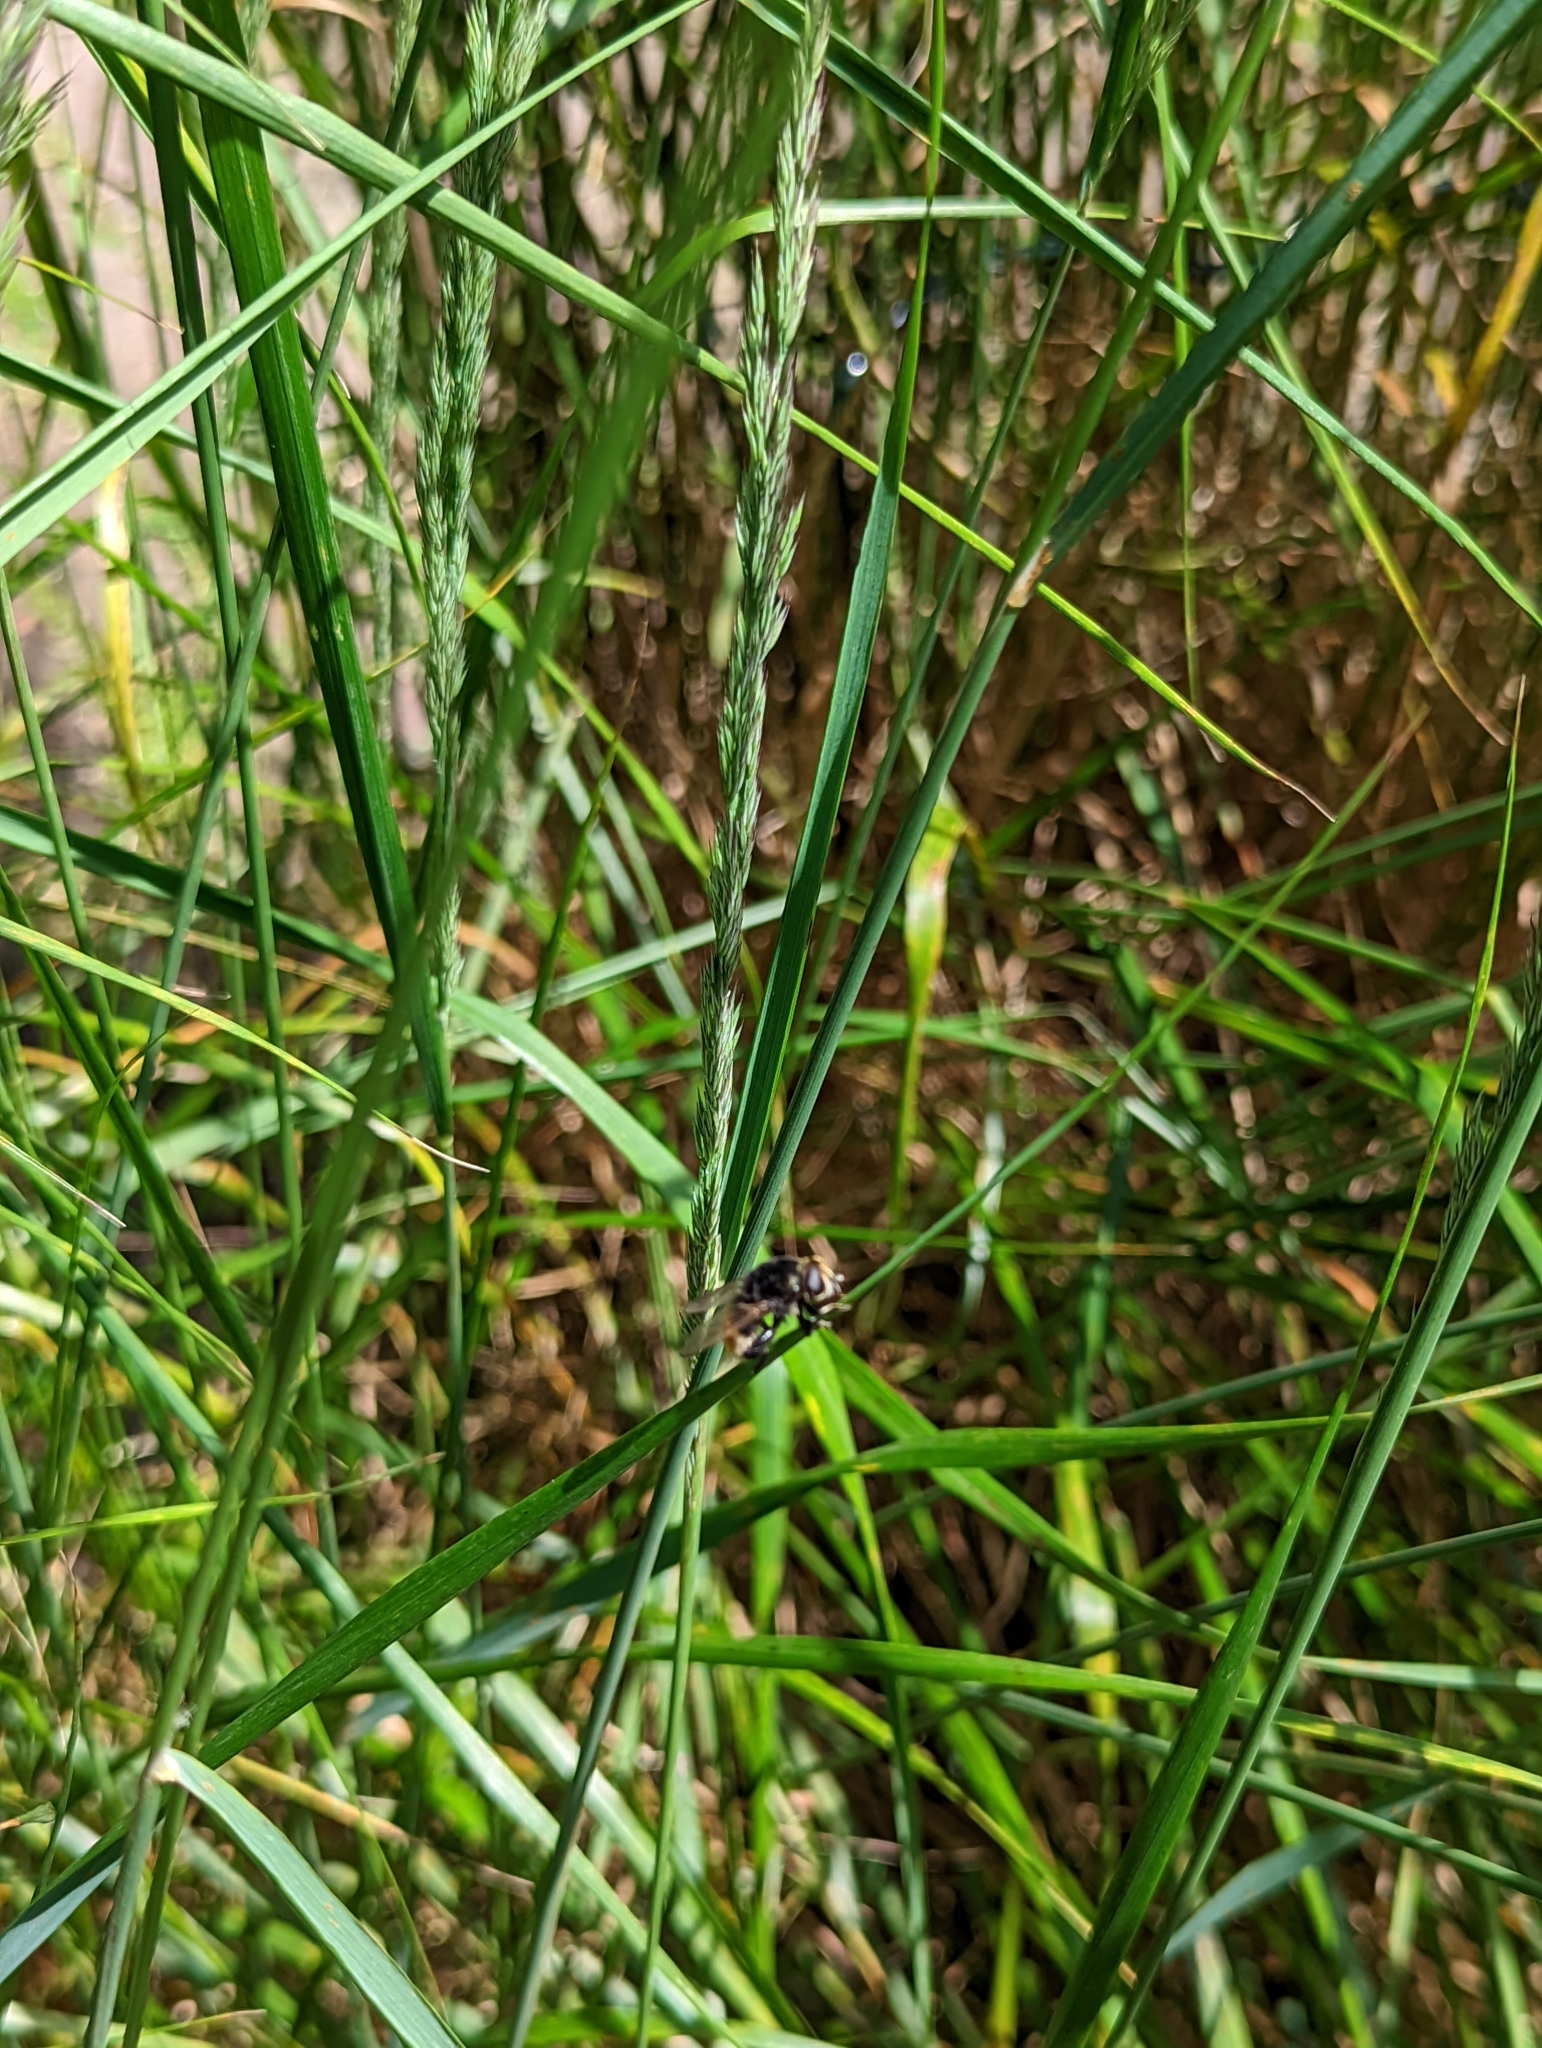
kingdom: Animalia
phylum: Arthropoda
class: Insecta
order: Diptera
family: Syrphidae
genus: Merodon
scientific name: Merodon equestris
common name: Greater bulb-fly
